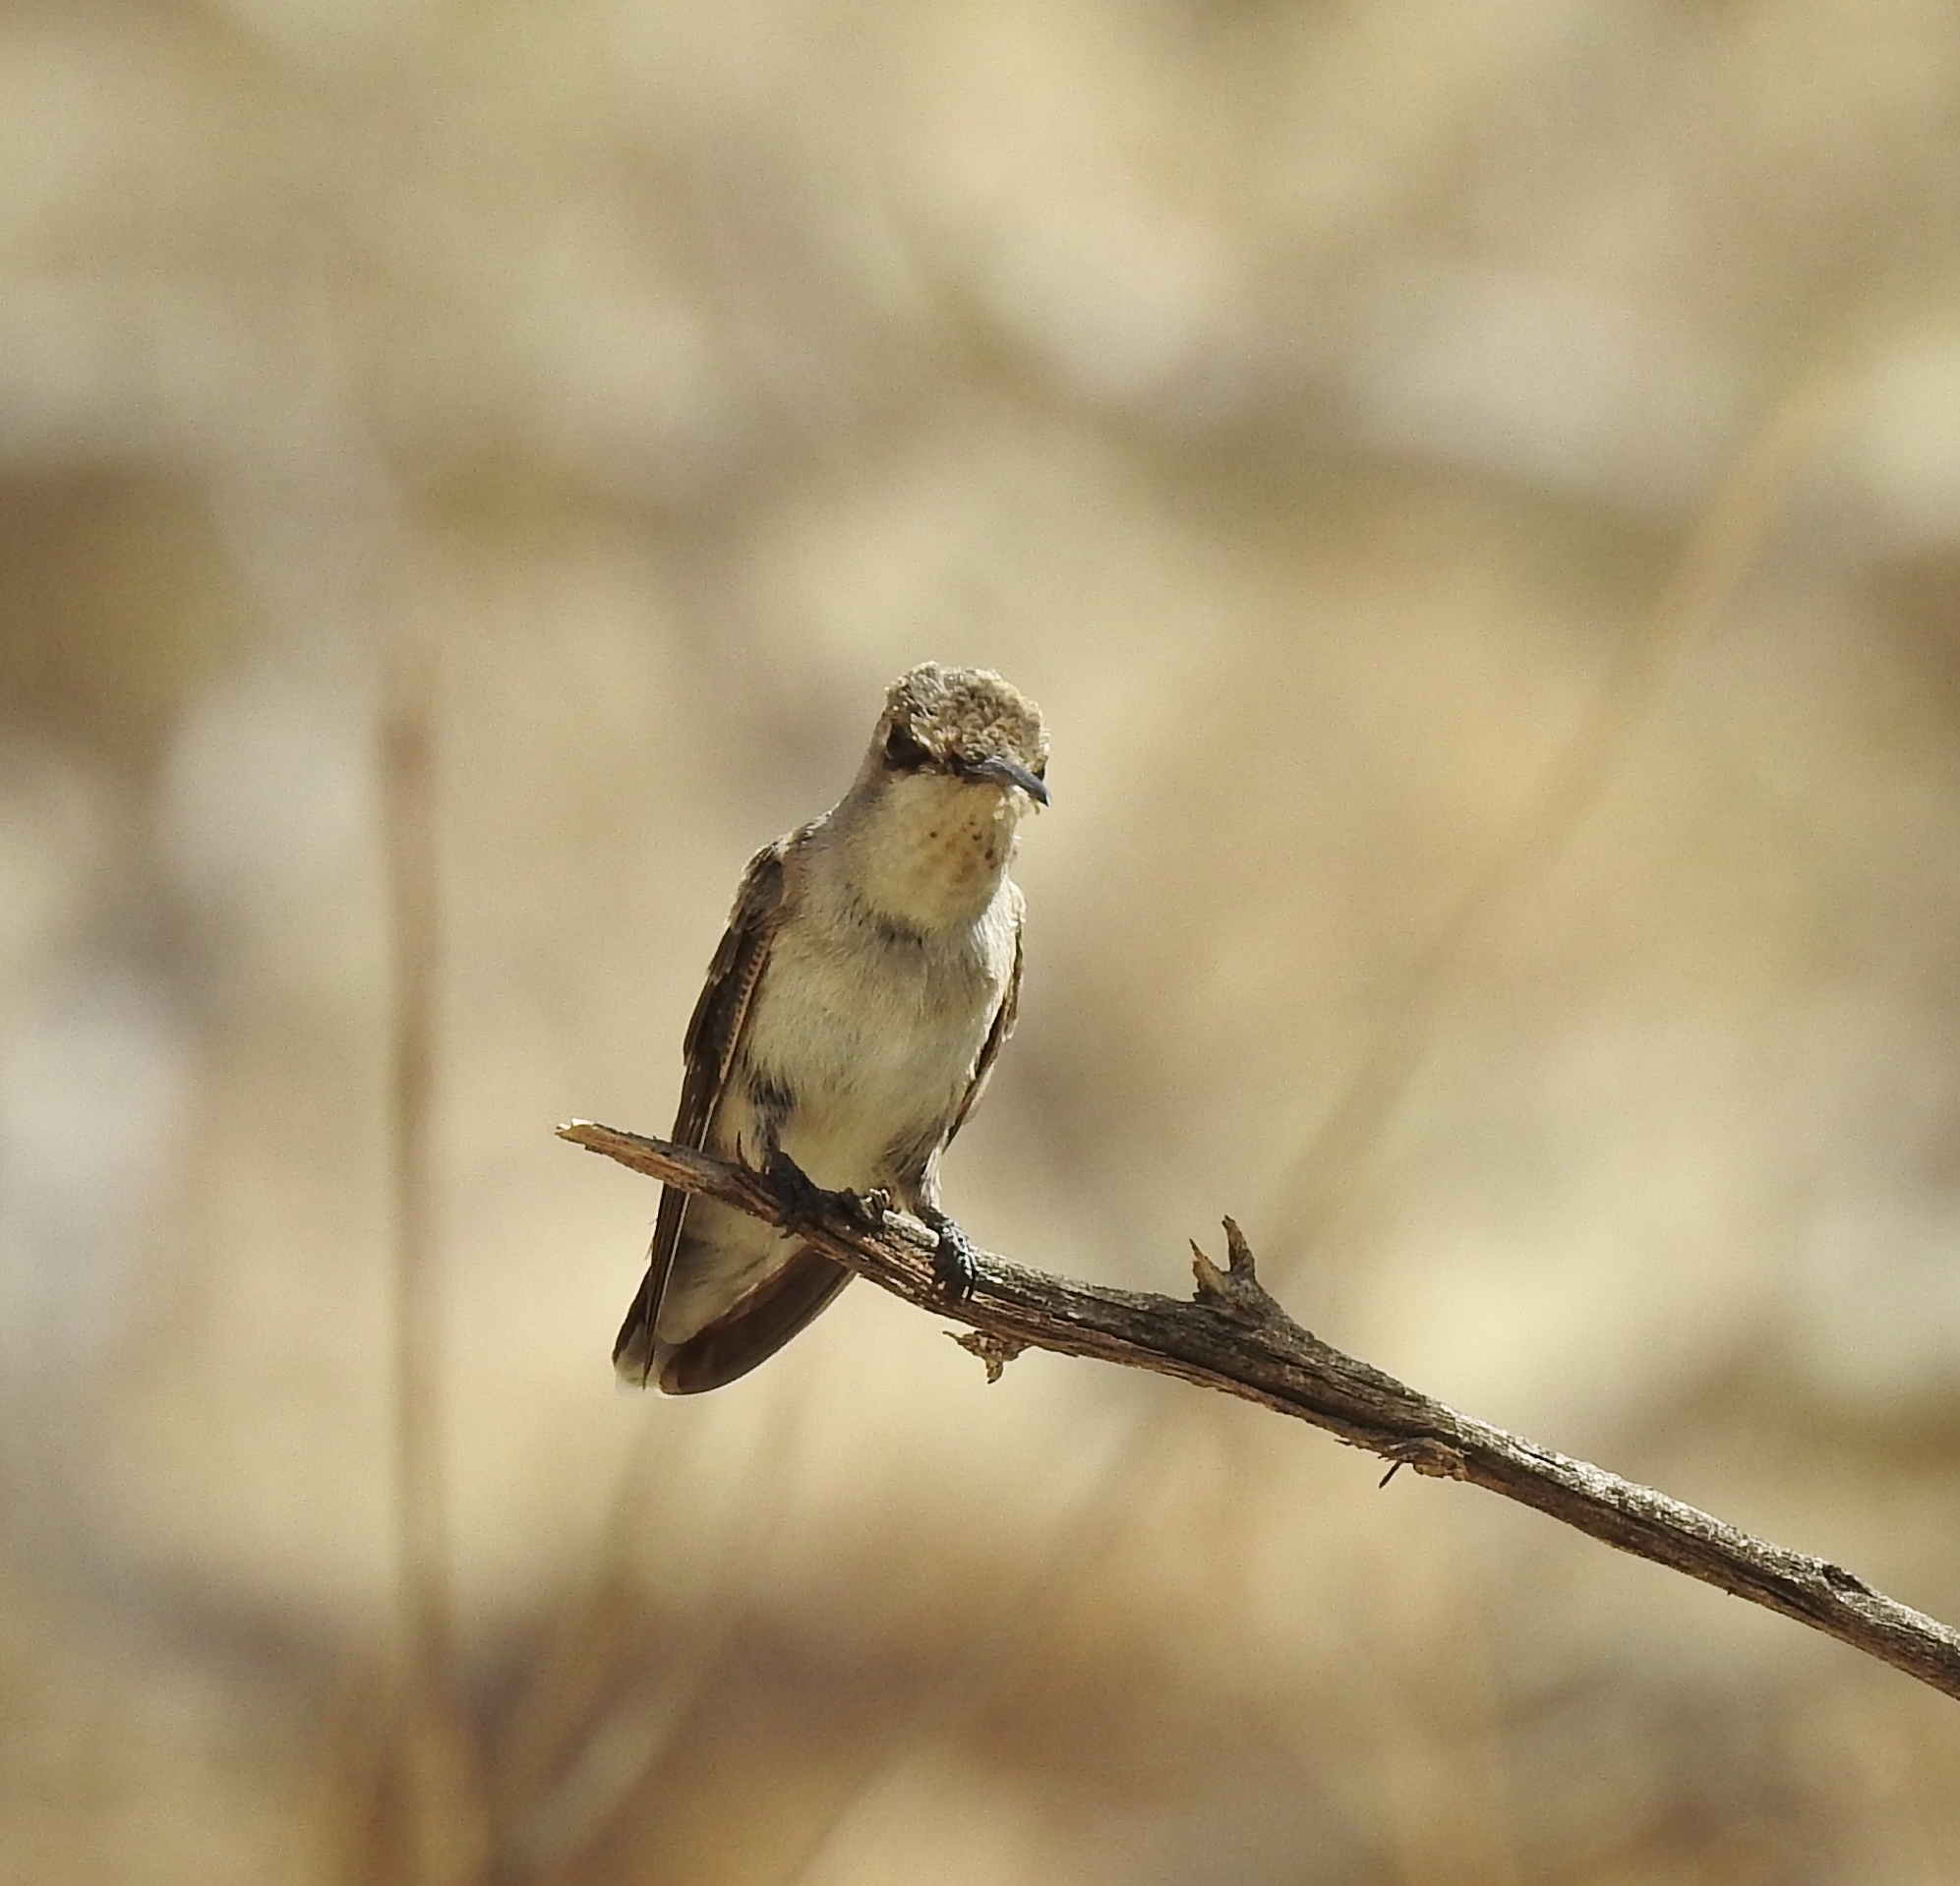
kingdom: Animalia
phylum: Chordata
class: Aves
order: Apodiformes
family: Trochilidae
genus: Calypte
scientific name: Calypte costae
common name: Costa's hummingbird
